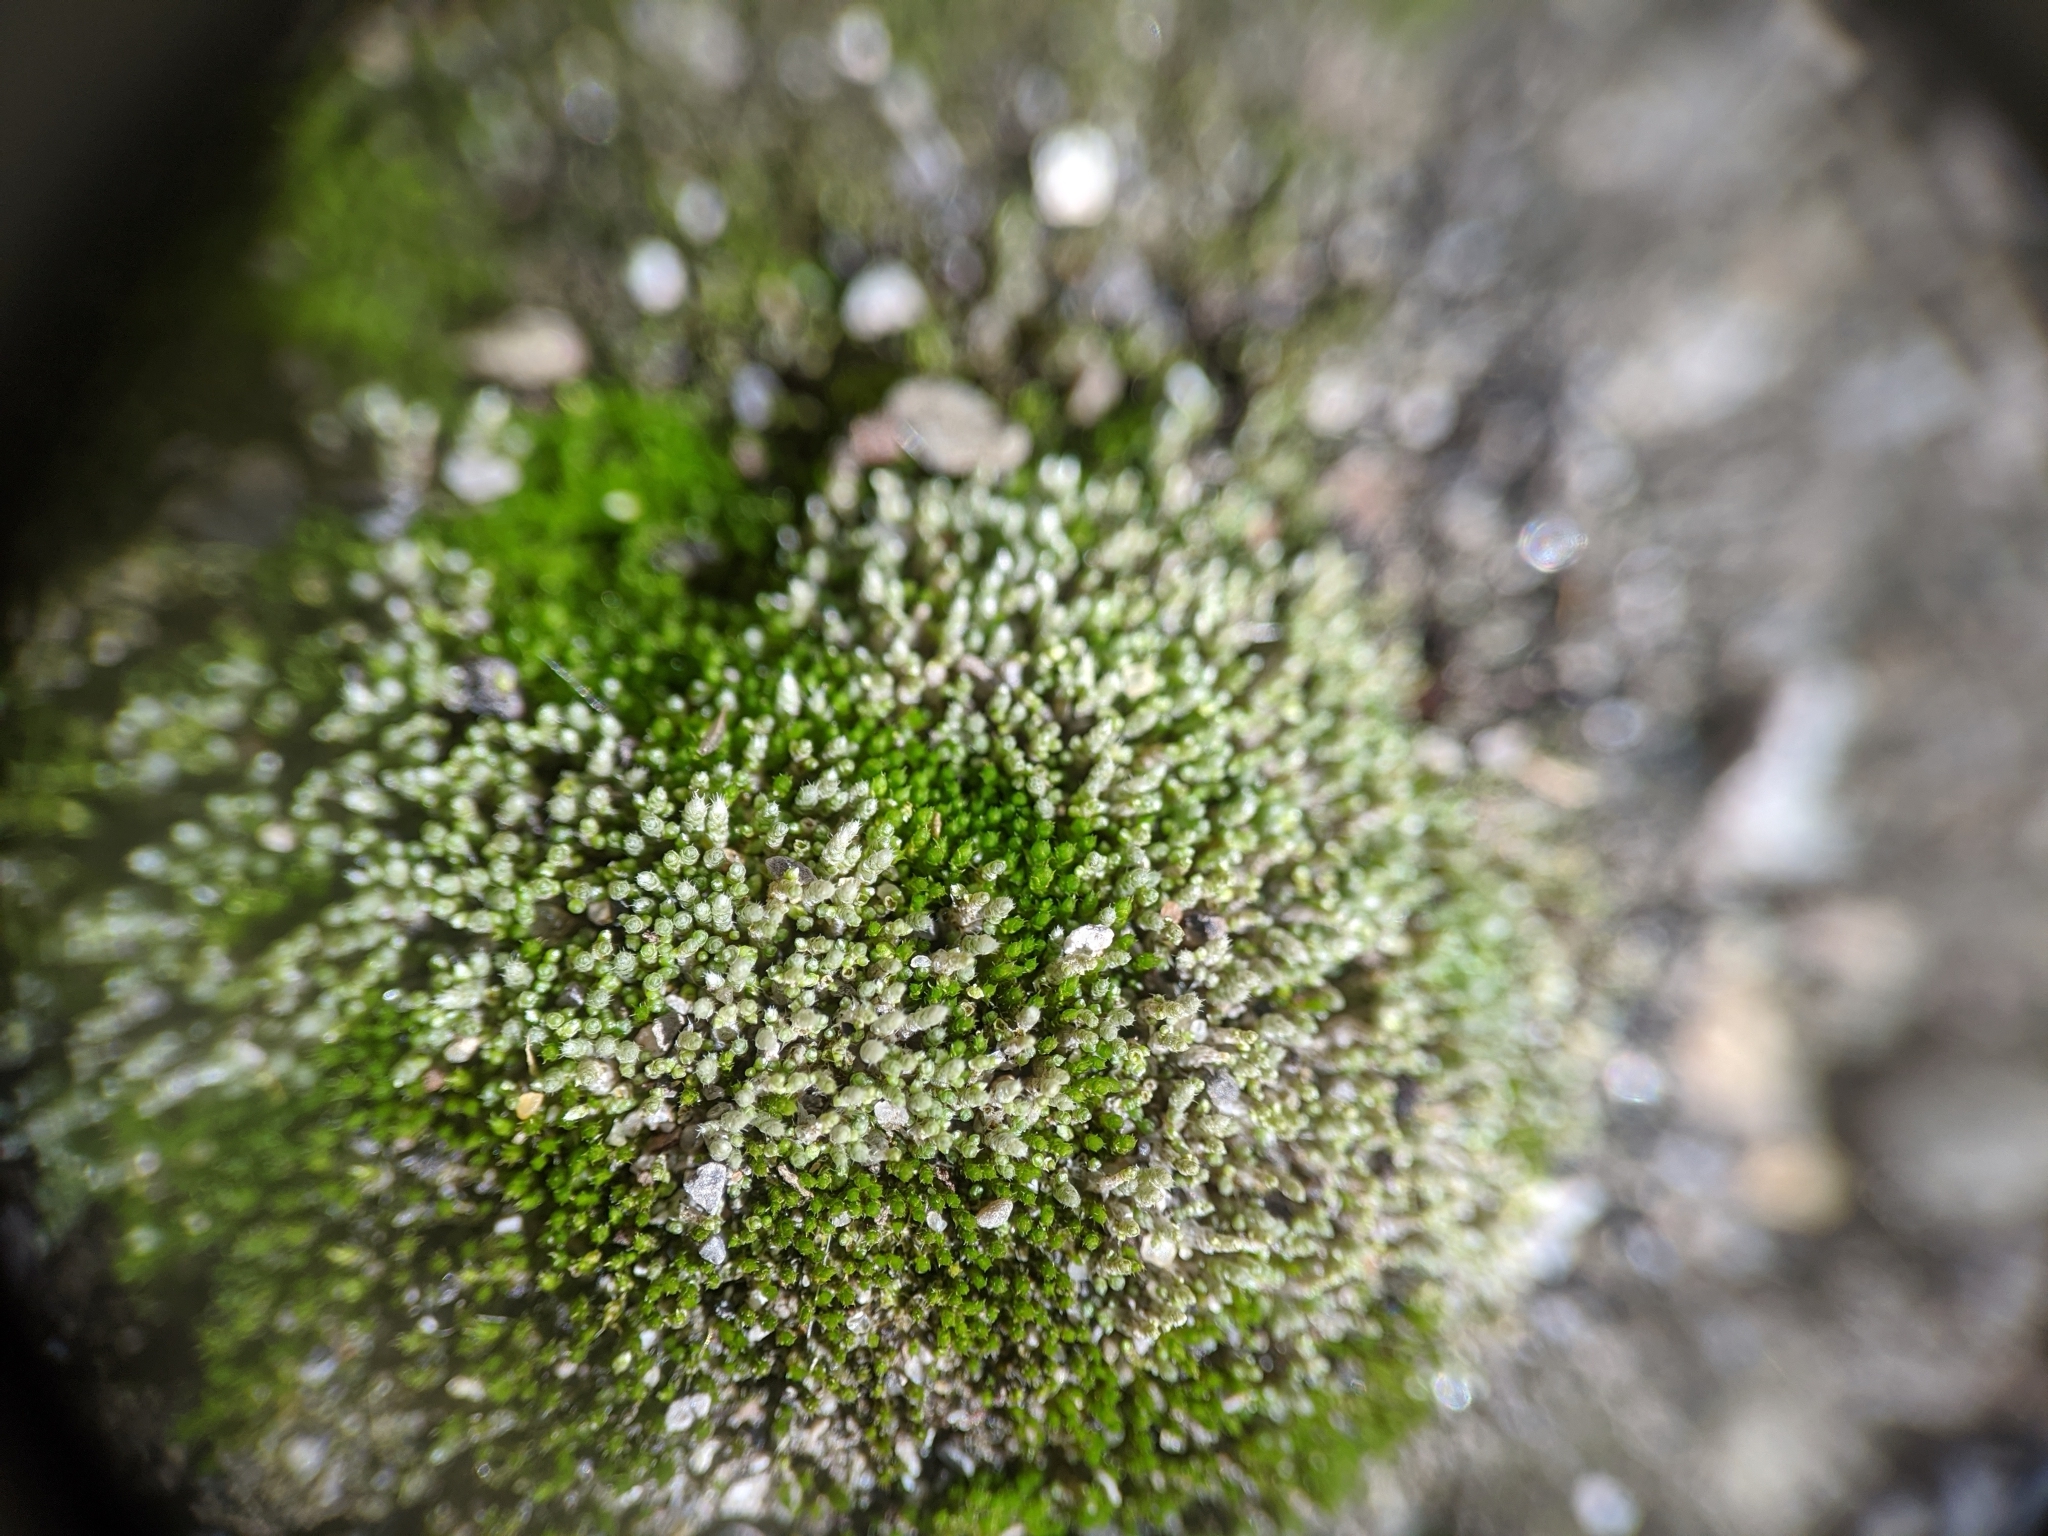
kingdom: Plantae
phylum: Bryophyta
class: Bryopsida
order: Bryales
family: Bryaceae
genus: Bryum
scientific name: Bryum argenteum
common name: Silver-moss
